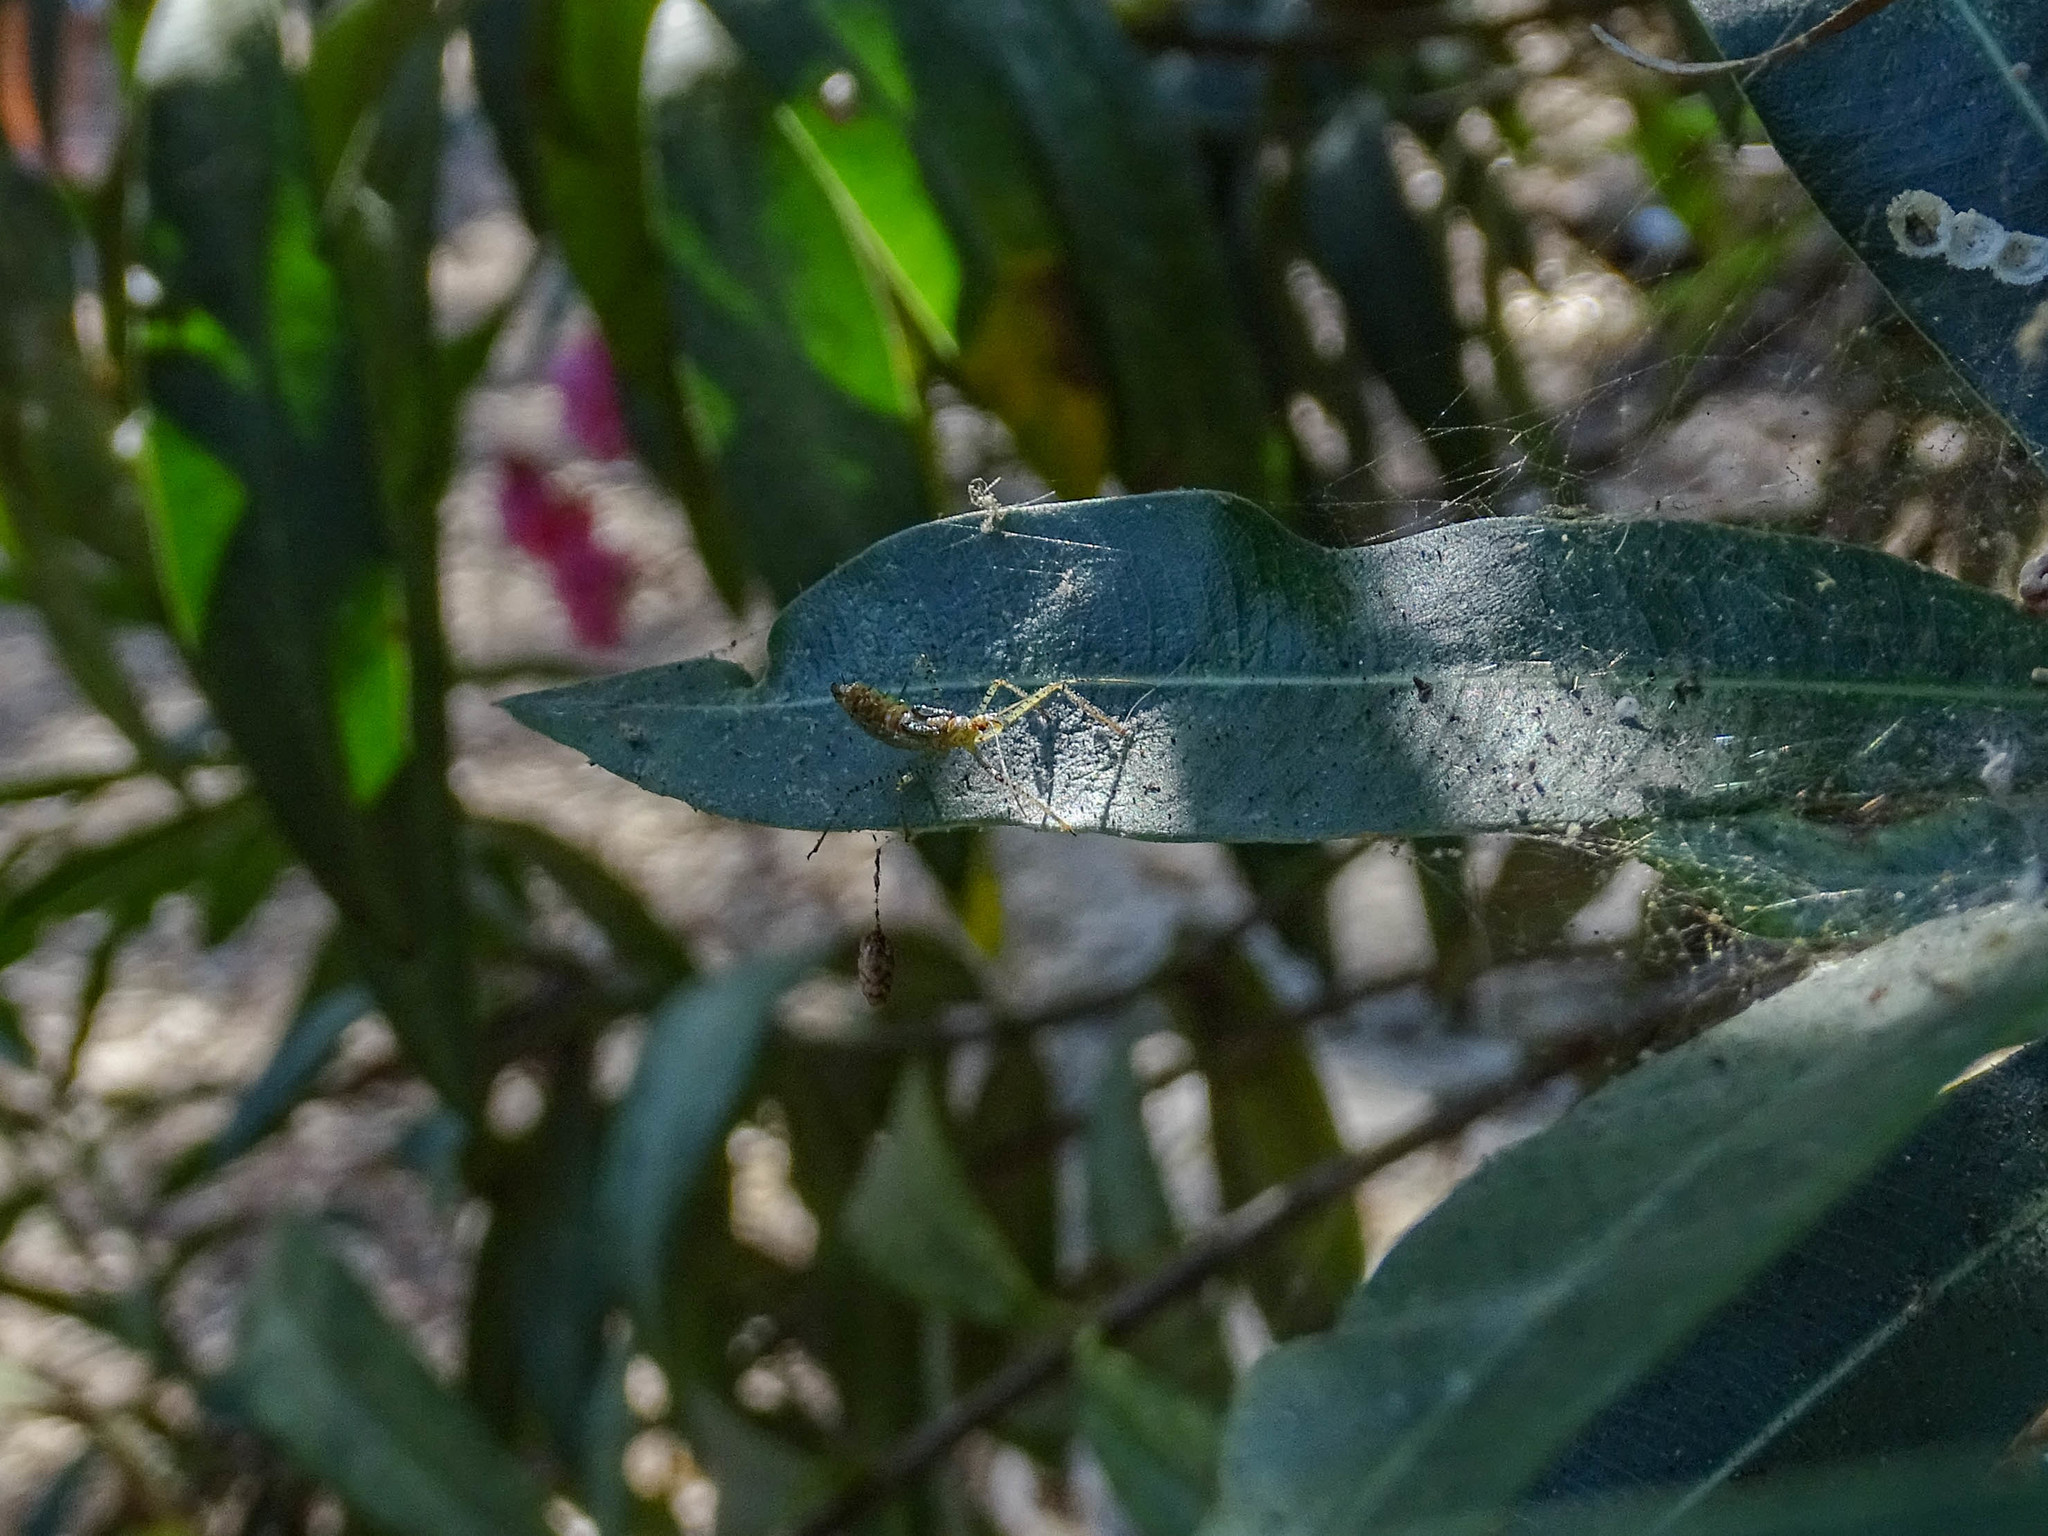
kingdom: Animalia
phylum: Arthropoda
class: Insecta
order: Hemiptera
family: Reduviidae
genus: Zelus
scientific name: Zelus renardii
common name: Assassin bug
